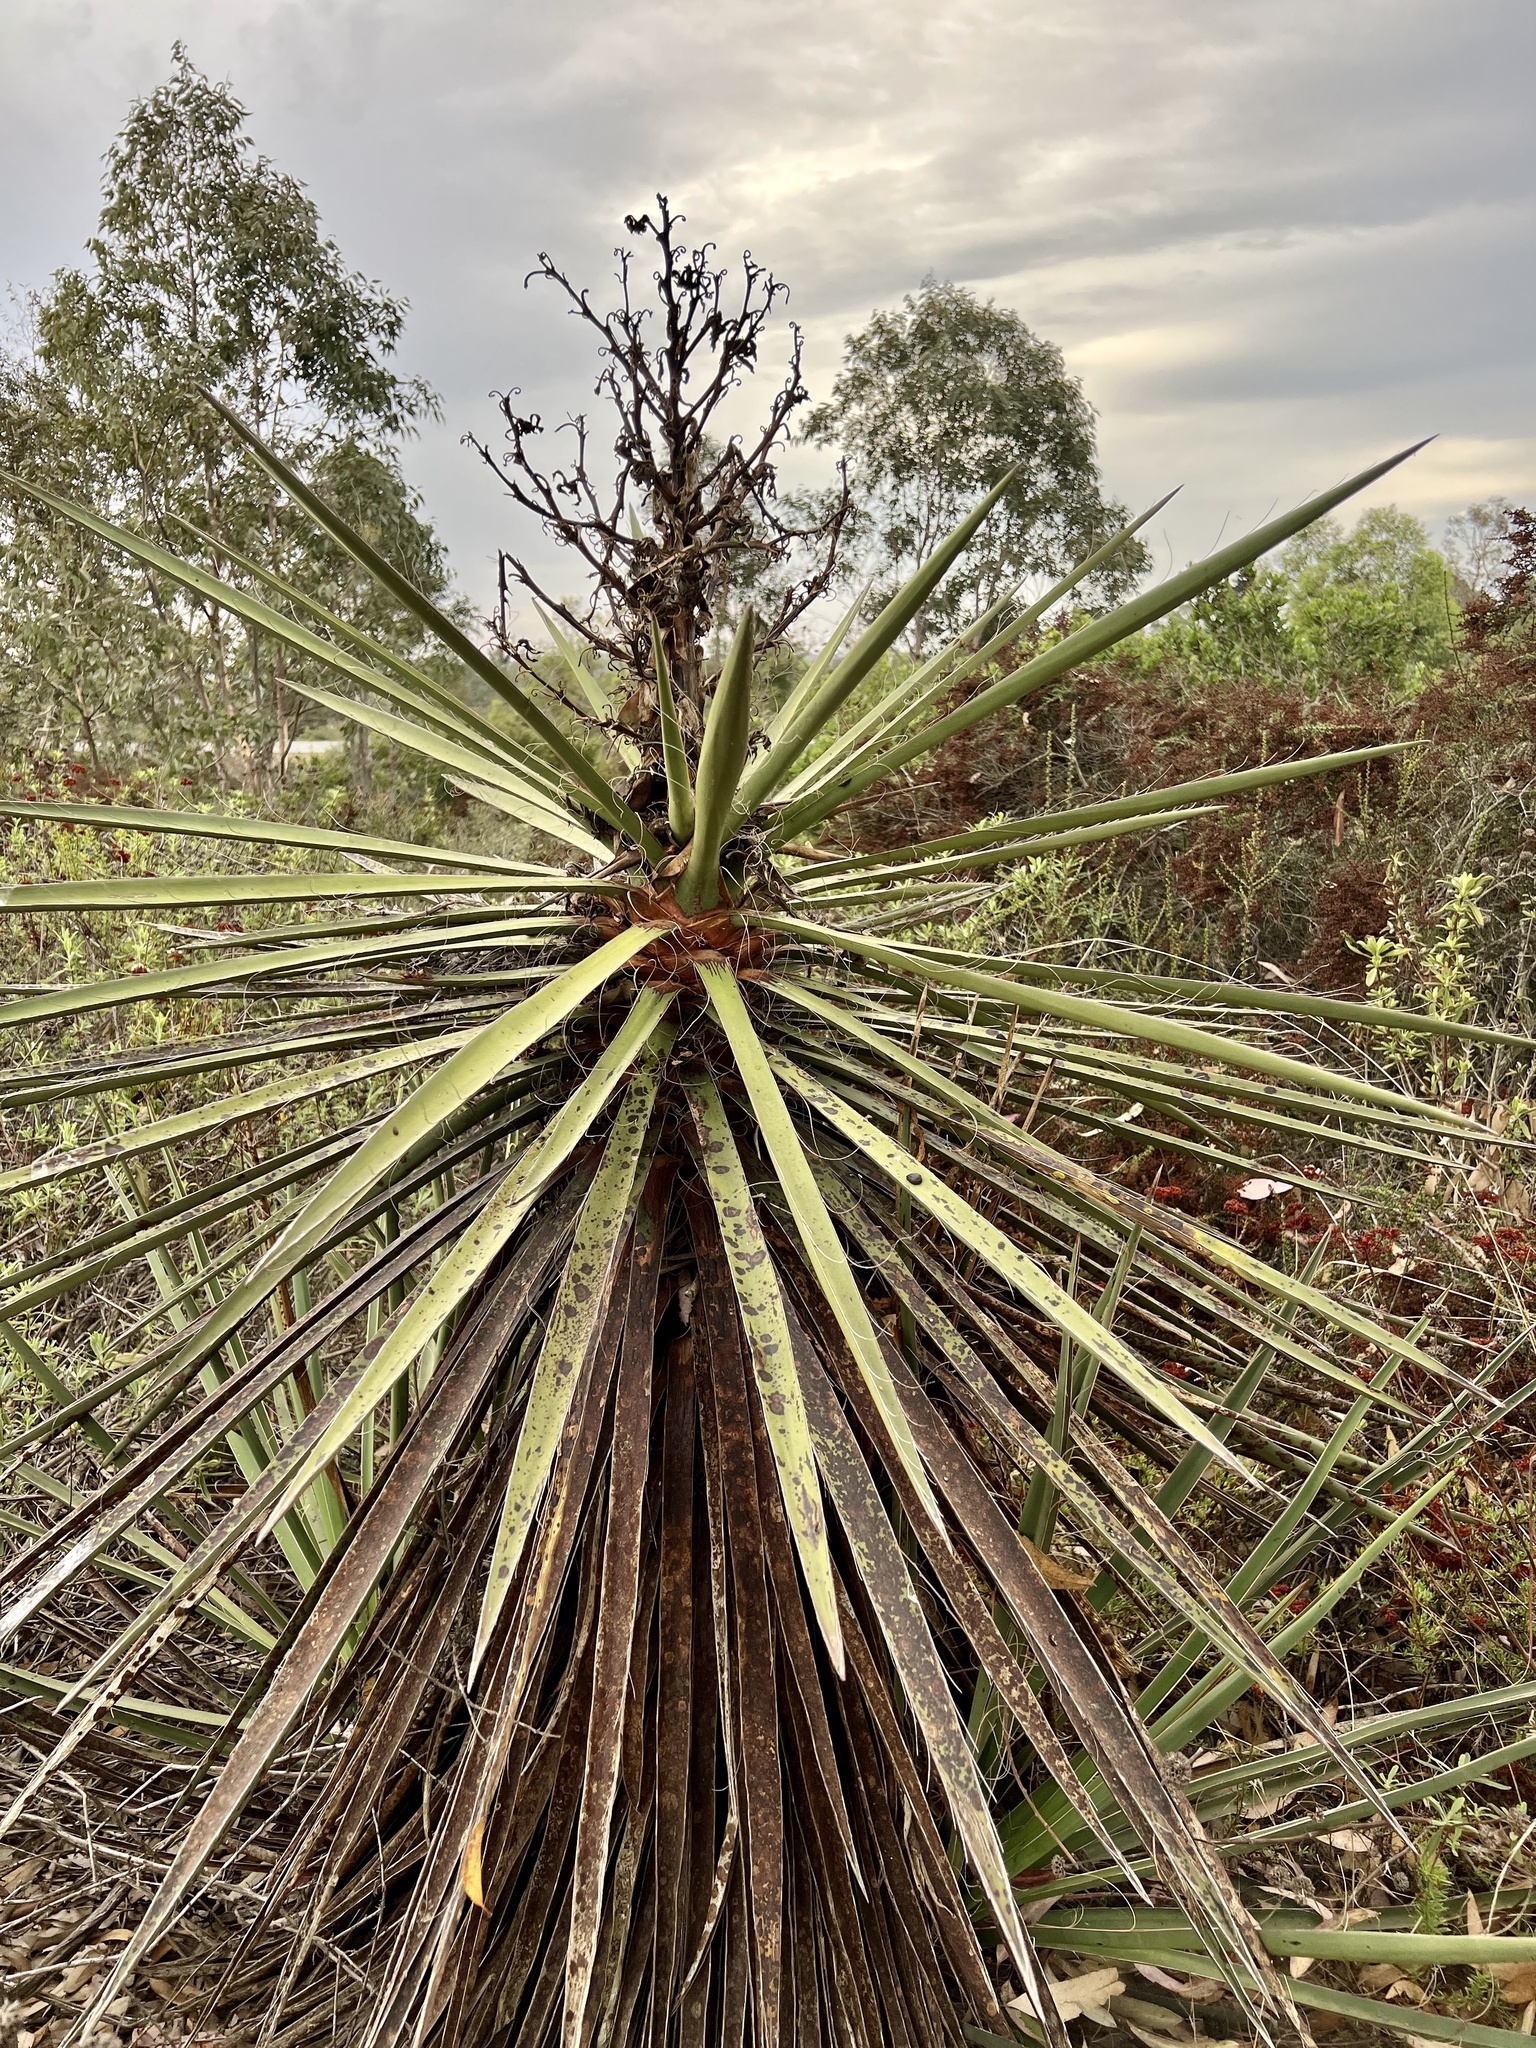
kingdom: Plantae
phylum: Tracheophyta
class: Liliopsida
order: Asparagales
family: Asparagaceae
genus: Yucca
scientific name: Yucca schidigera
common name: Mojave yucca
